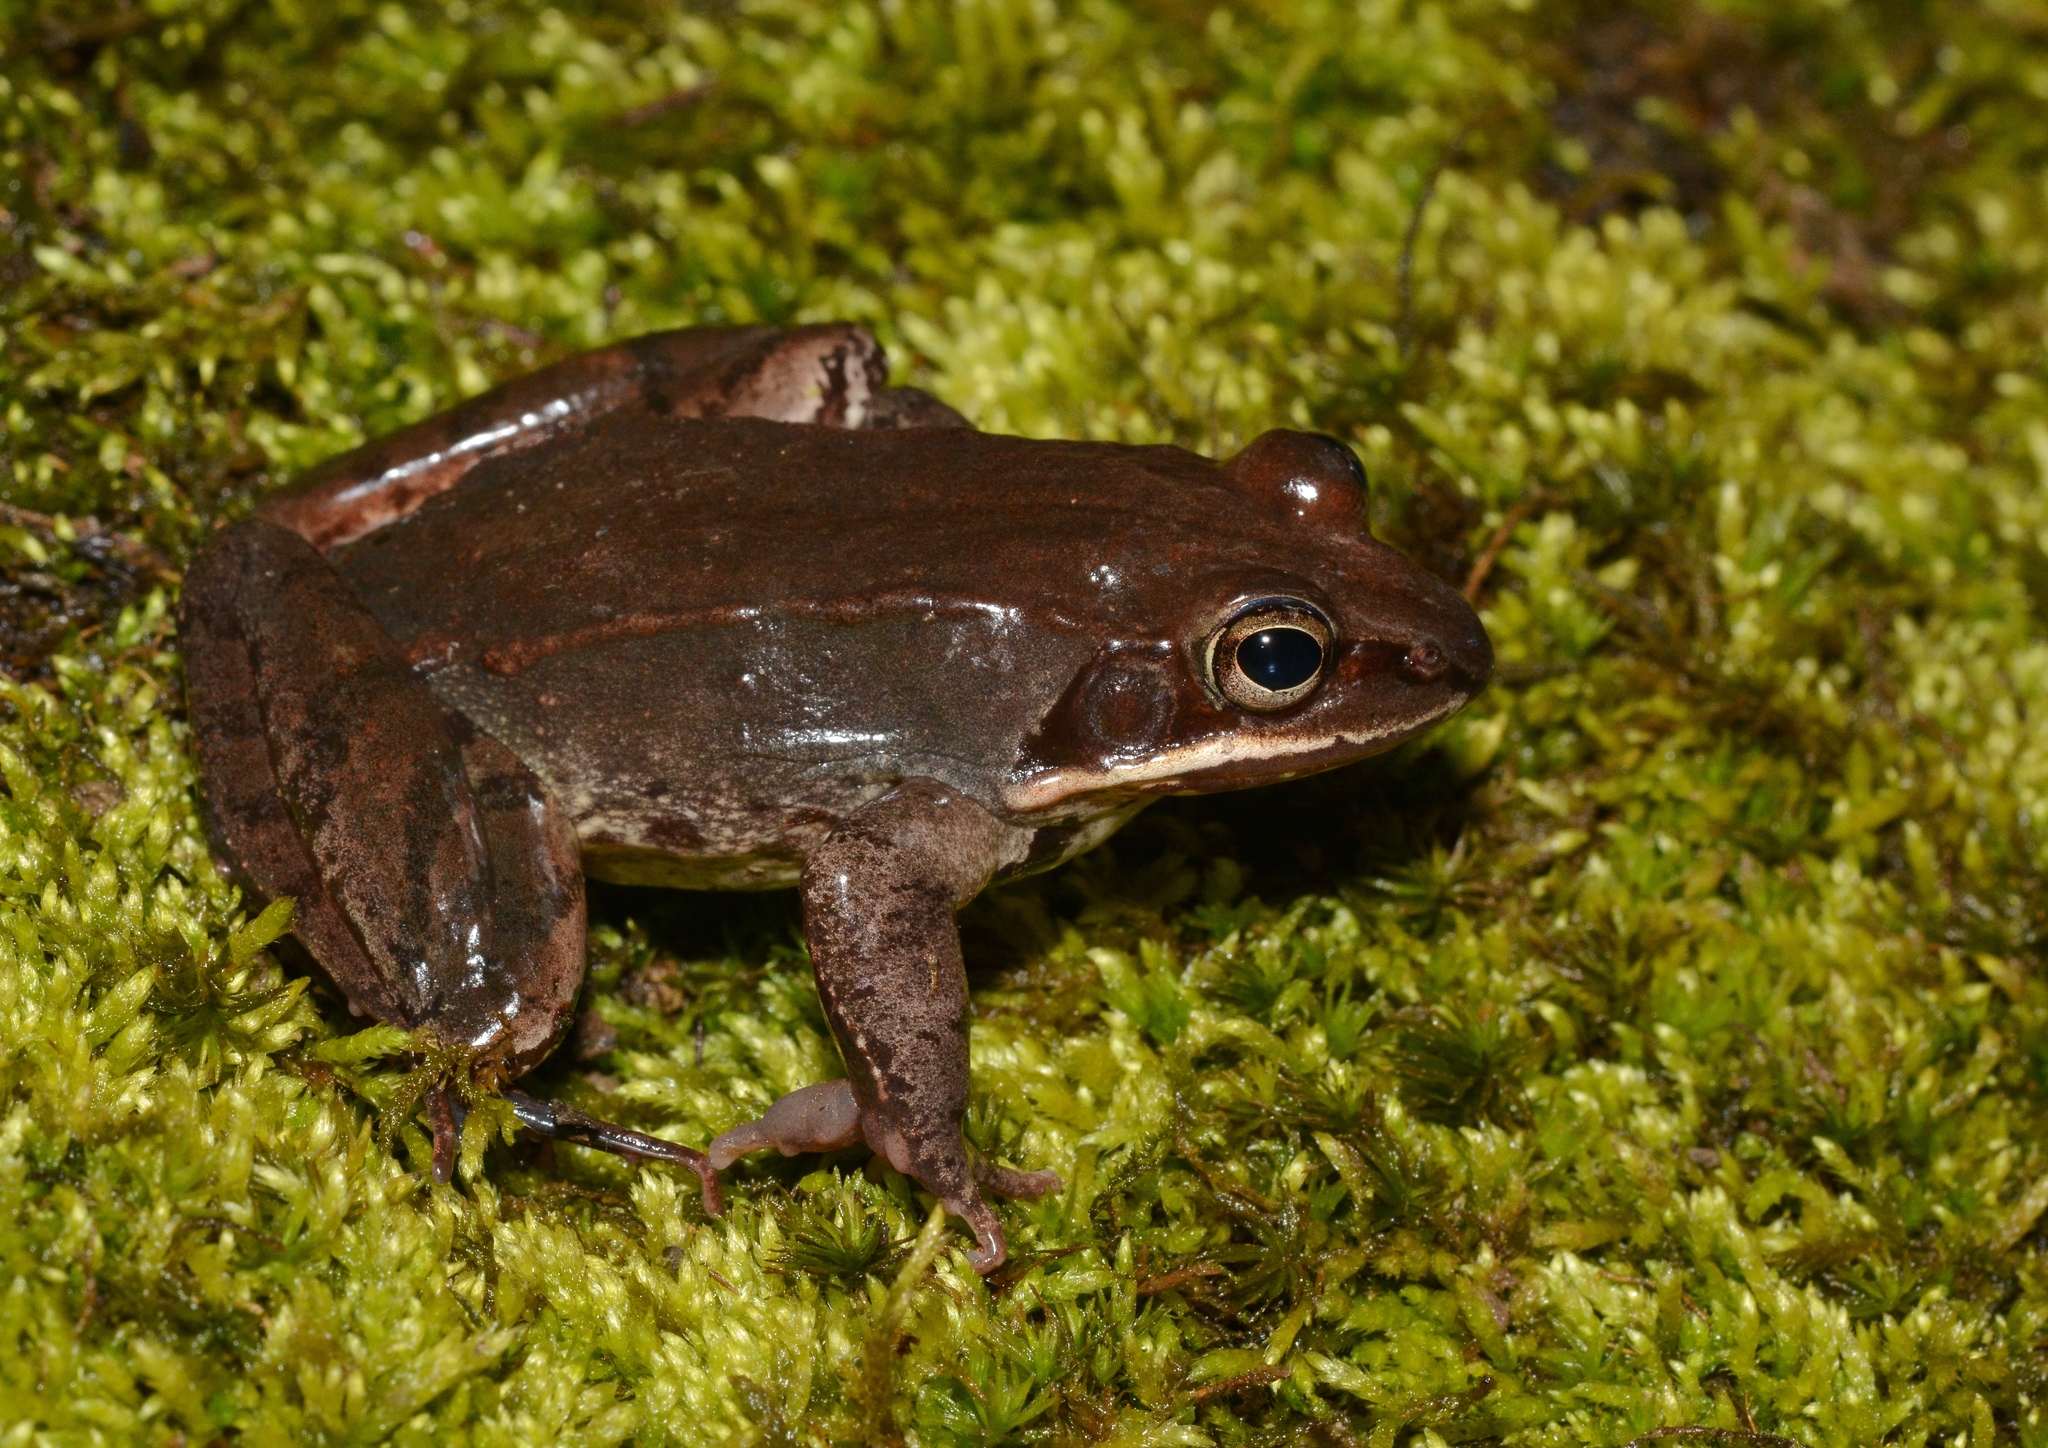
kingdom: Animalia
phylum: Chordata
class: Amphibia
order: Anura
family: Ranidae
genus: Lithobates
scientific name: Lithobates sylvaticus
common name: Wood frog
